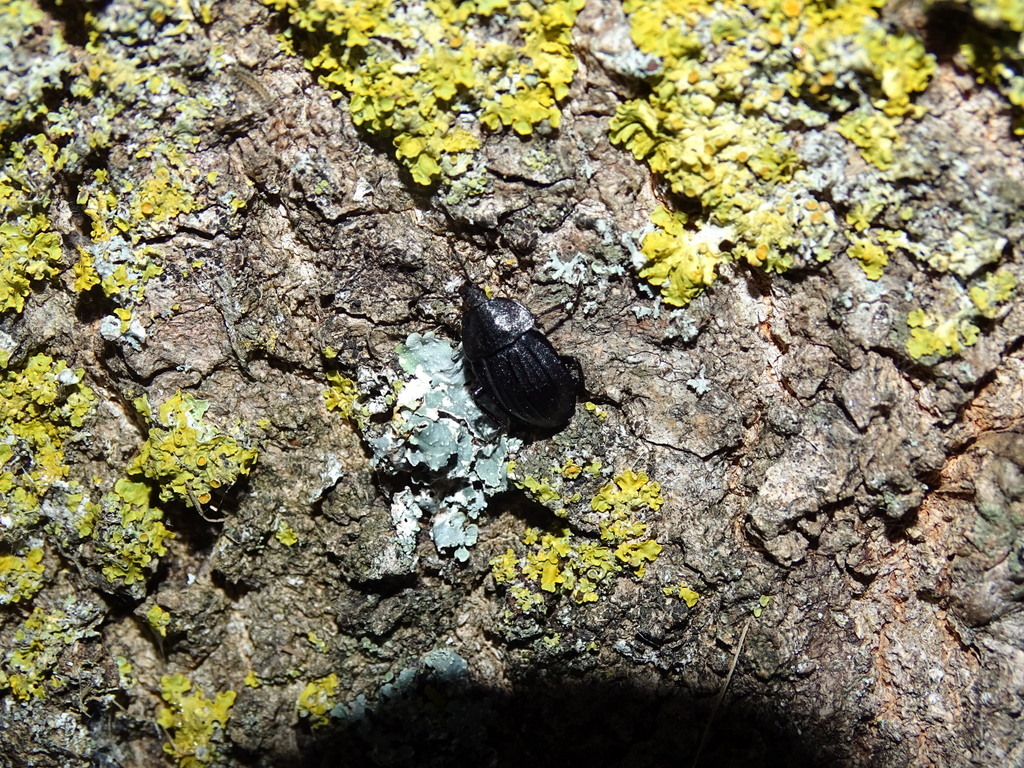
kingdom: Animalia
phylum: Arthropoda
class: Insecta
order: Coleoptera
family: Staphylinidae
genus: Silpha
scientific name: Silpha atrata
